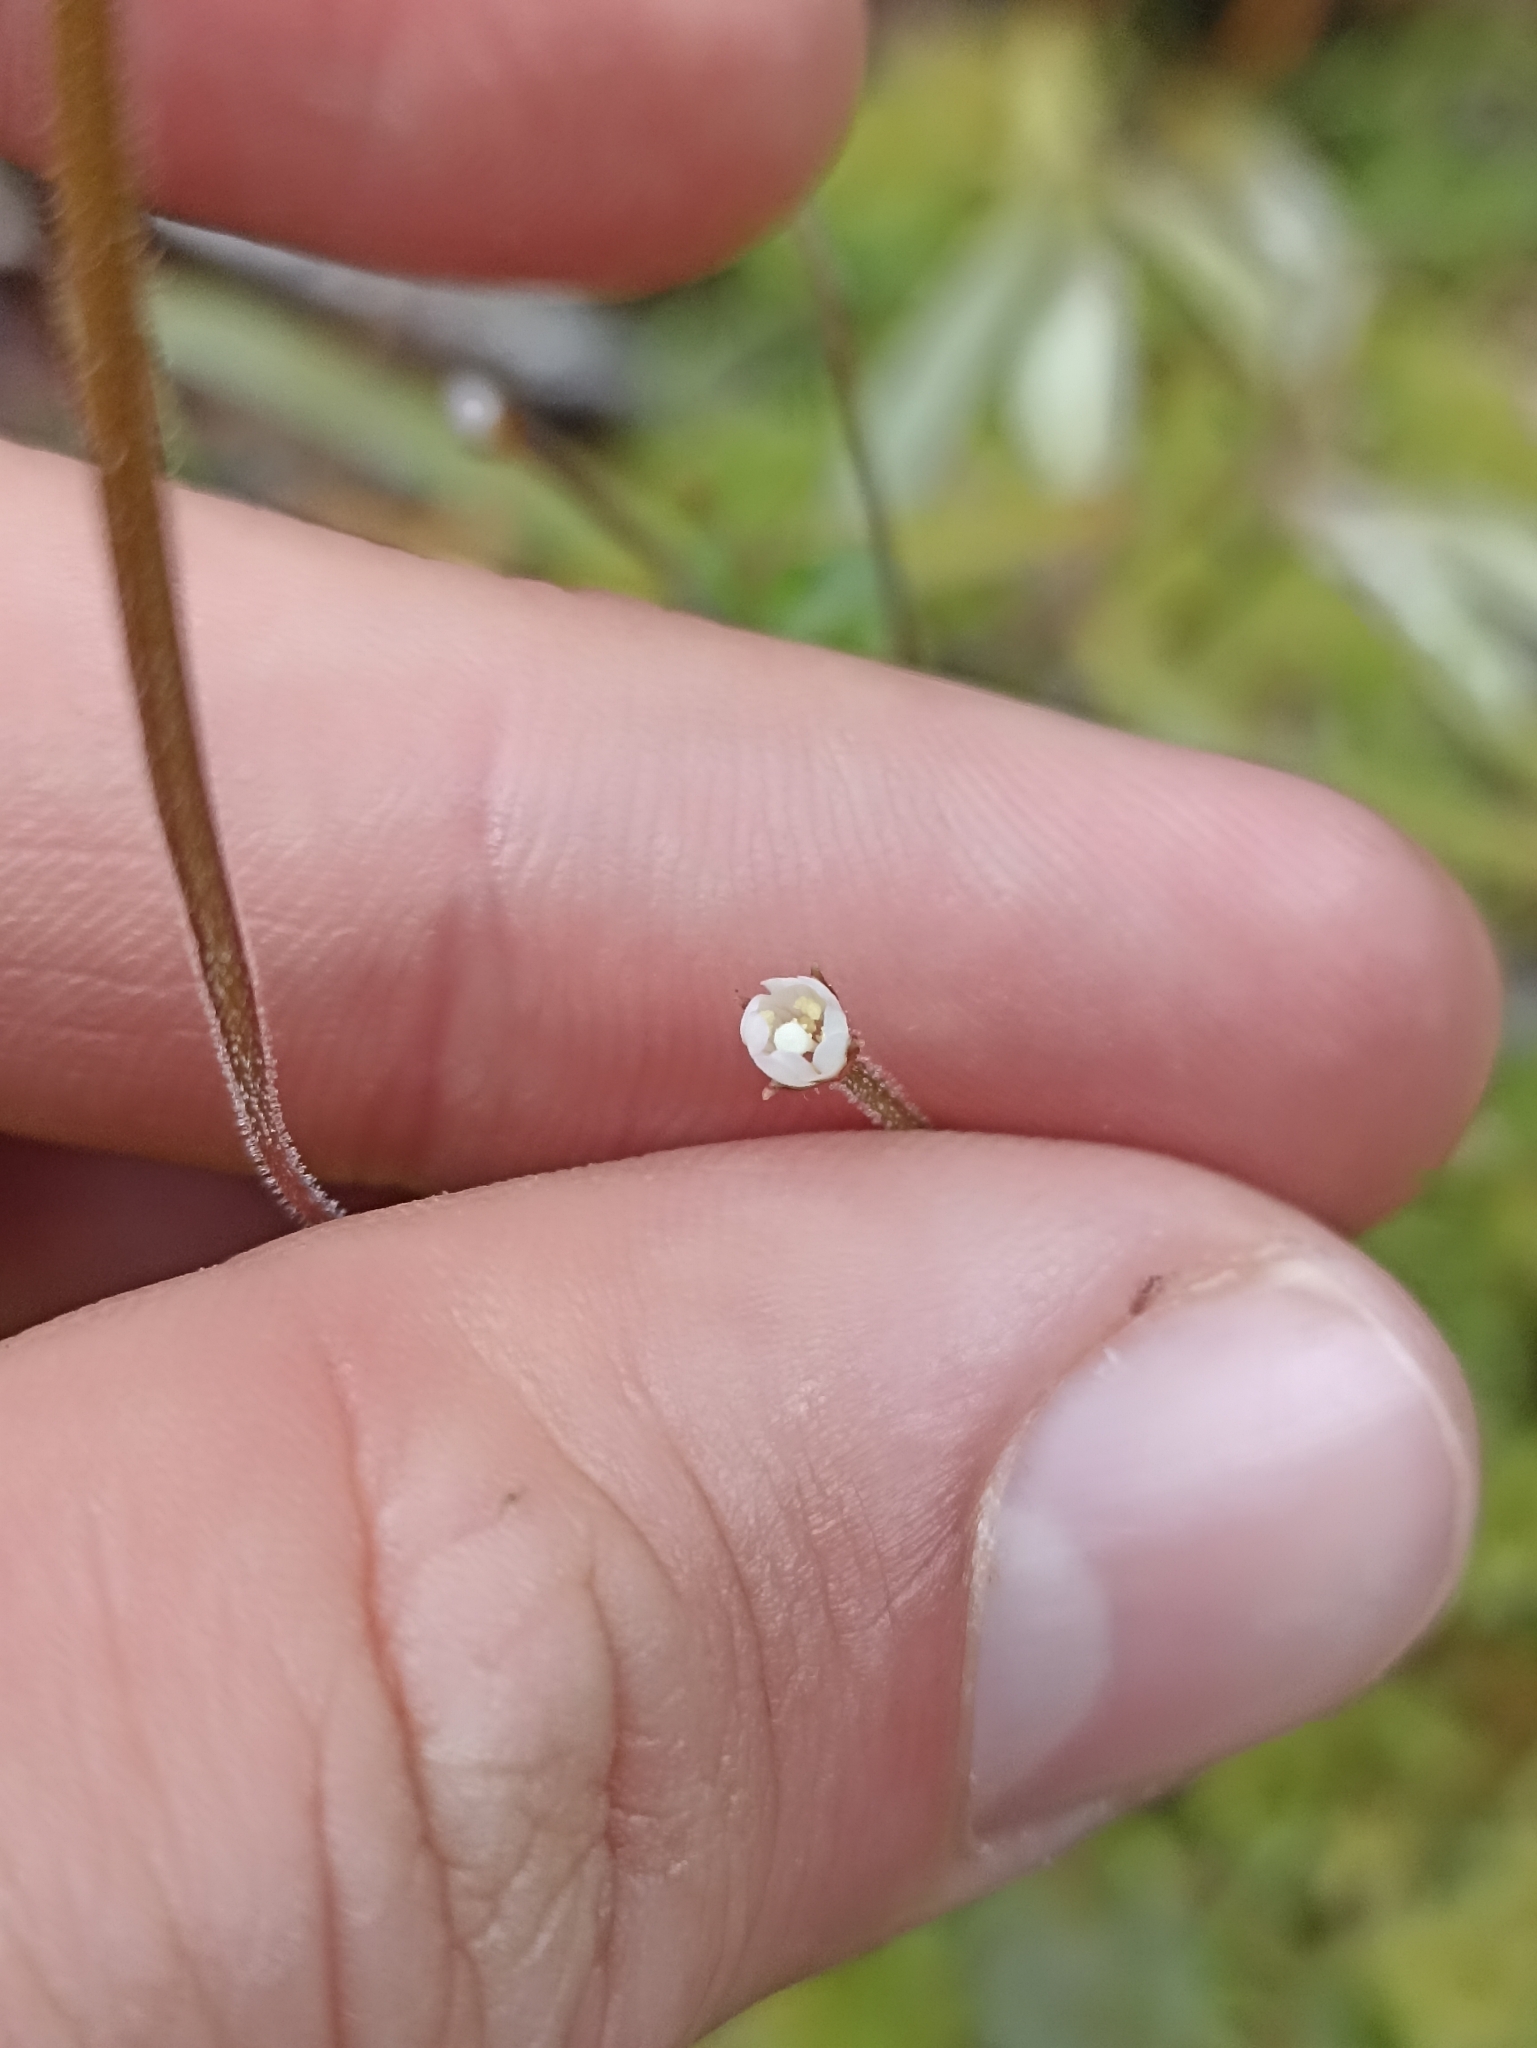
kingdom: Plantae
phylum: Tracheophyta
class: Magnoliopsida
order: Myrtales
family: Onagraceae
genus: Epilobium
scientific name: Epilobium rotundifolium
